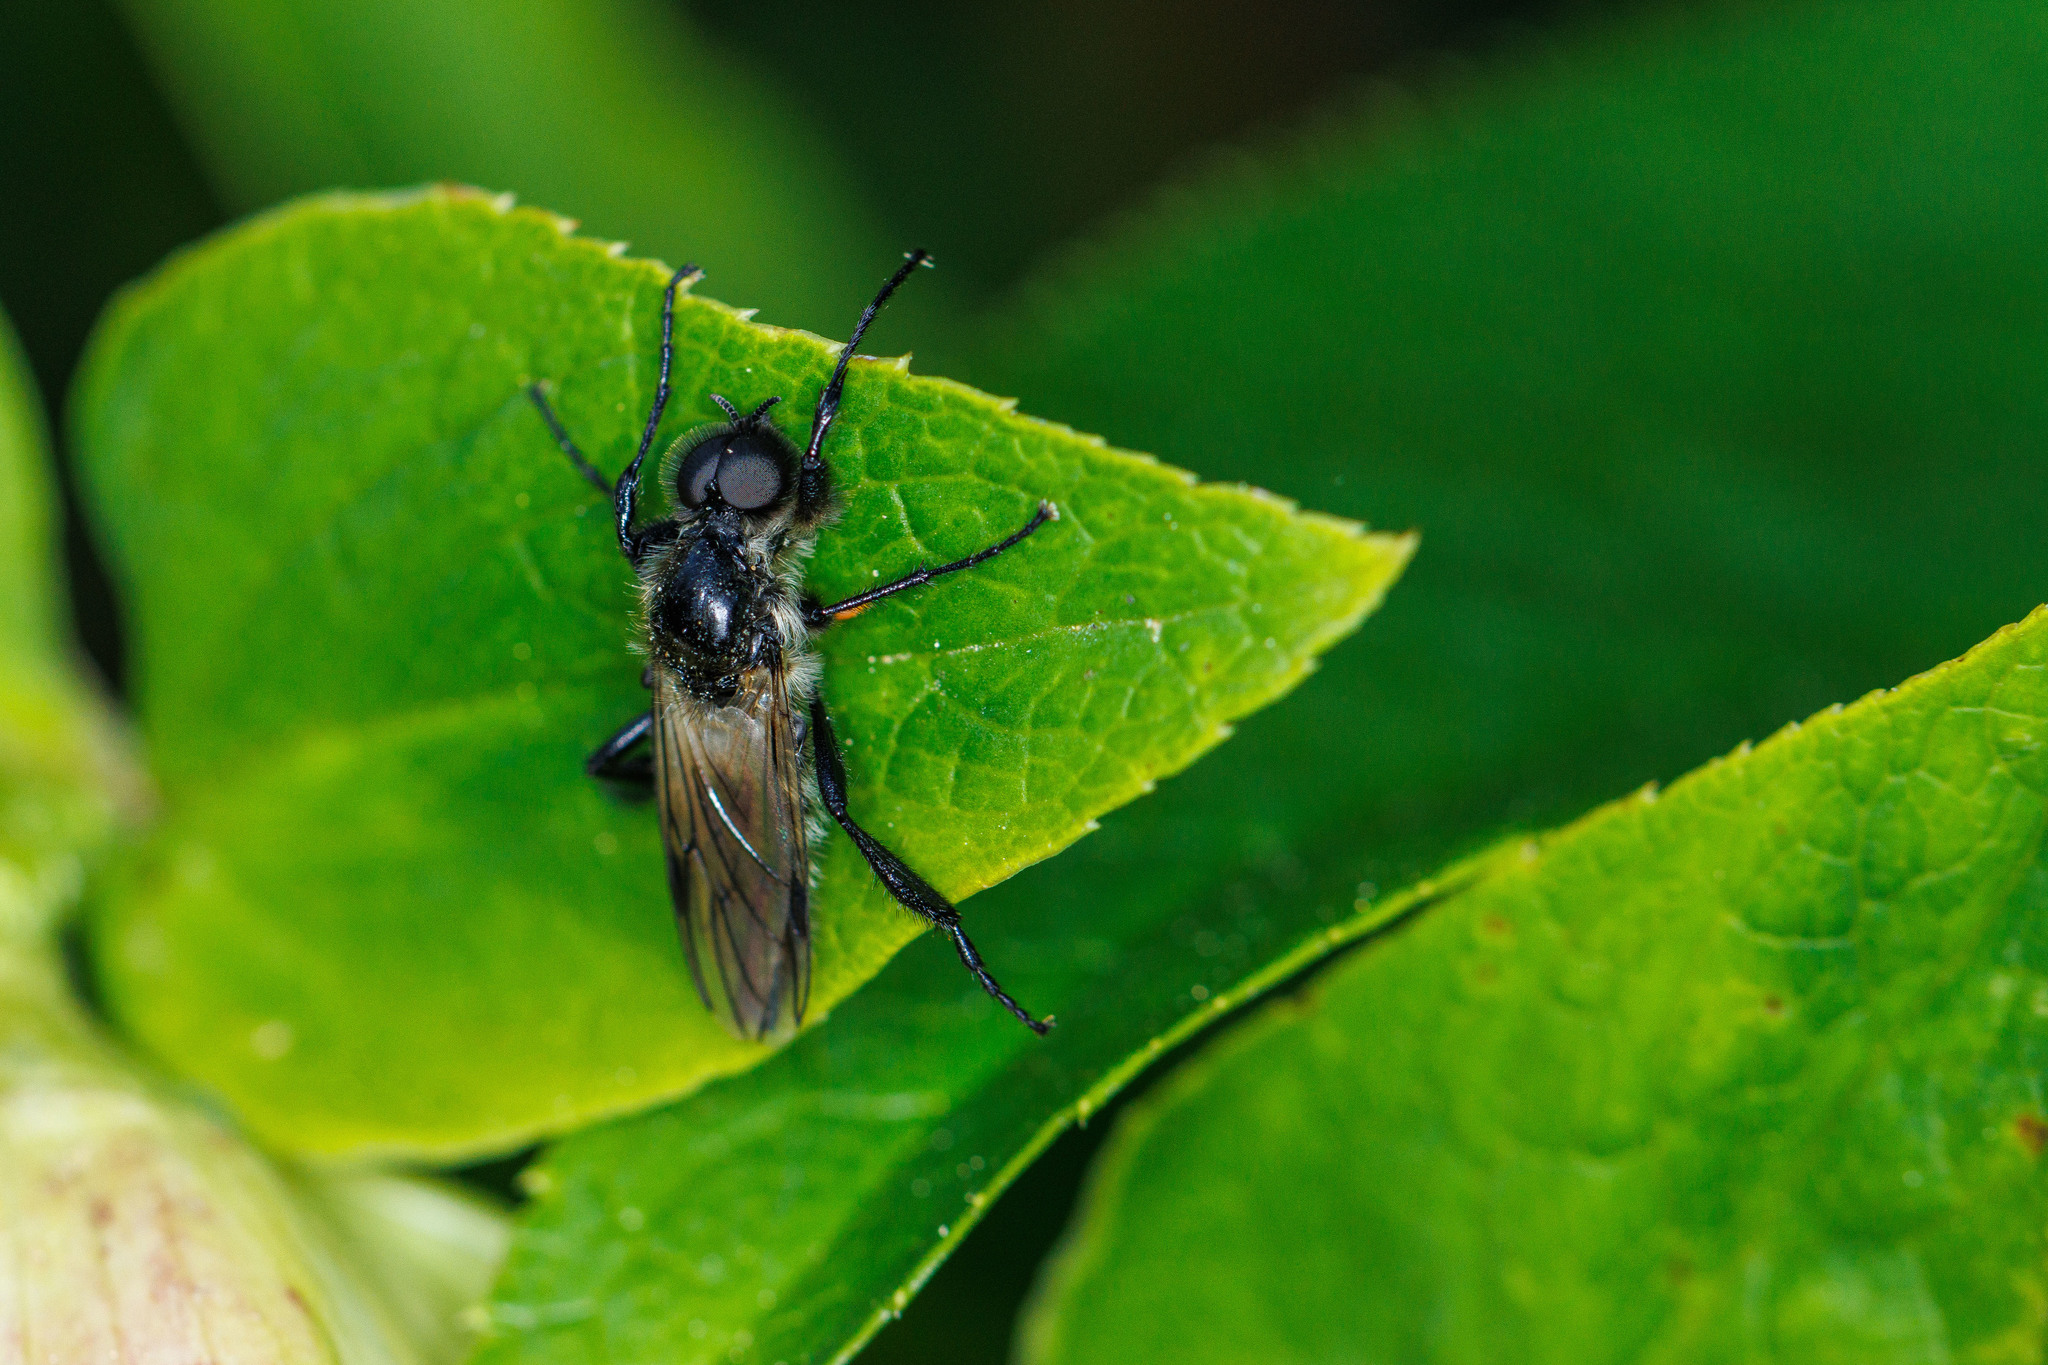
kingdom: Animalia
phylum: Arthropoda
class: Insecta
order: Diptera
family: Bibionidae
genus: Bibio
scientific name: Bibio albipennis
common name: White-winged march fly
